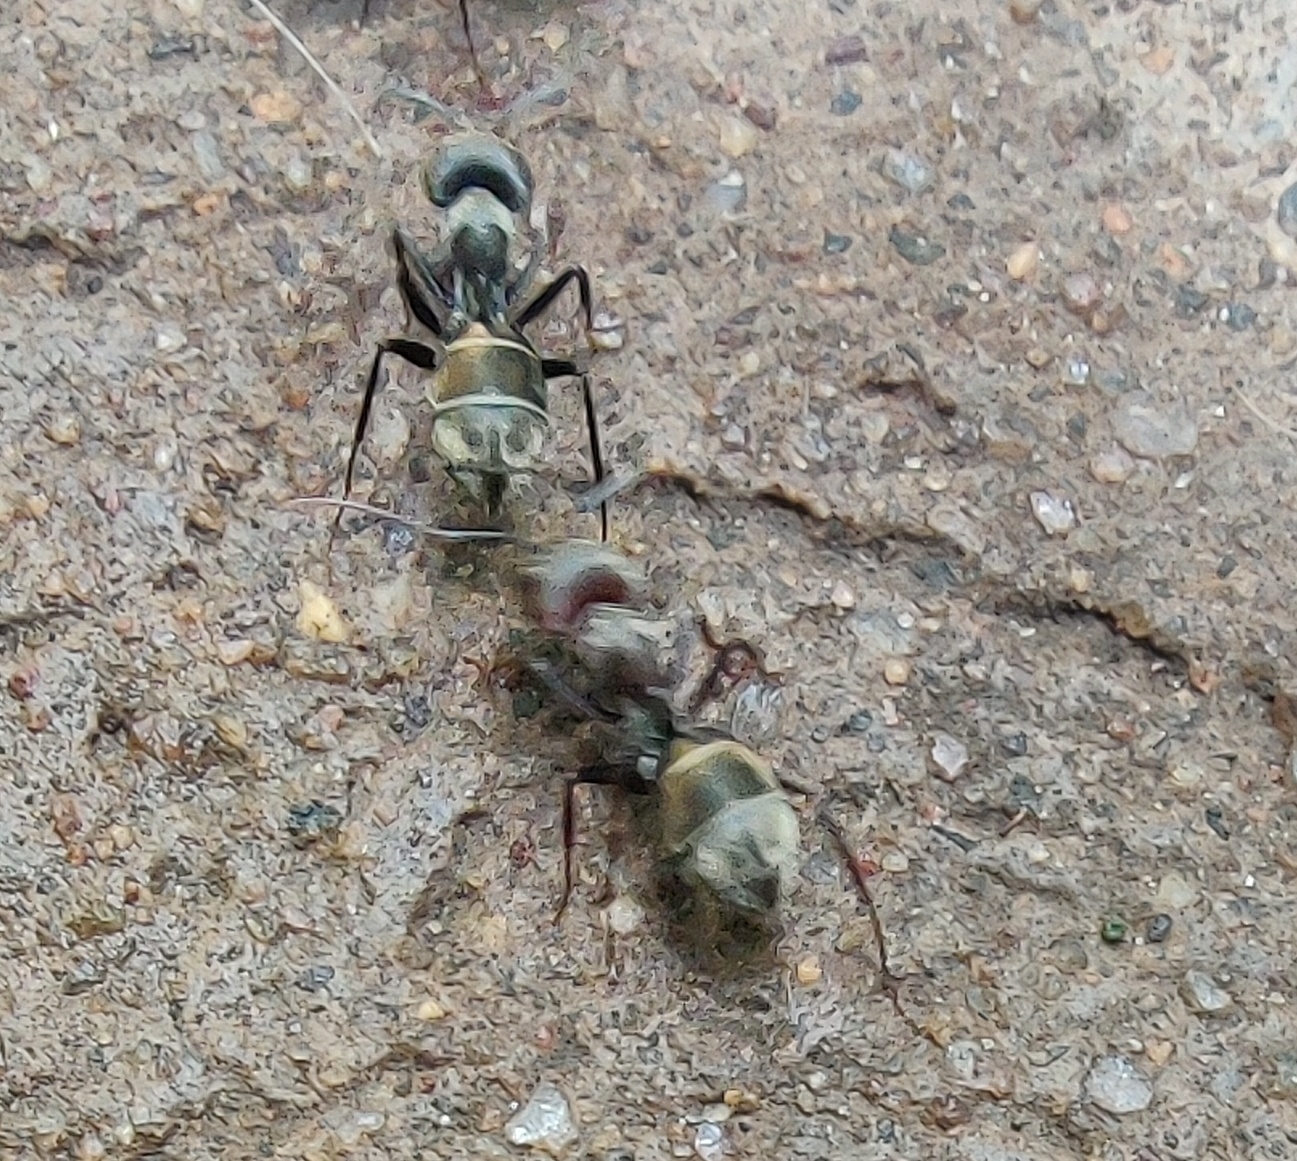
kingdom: Animalia
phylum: Arthropoda
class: Insecta
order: Hymenoptera
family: Formicidae
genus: Camponotus
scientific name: Camponotus rufoglaucus
